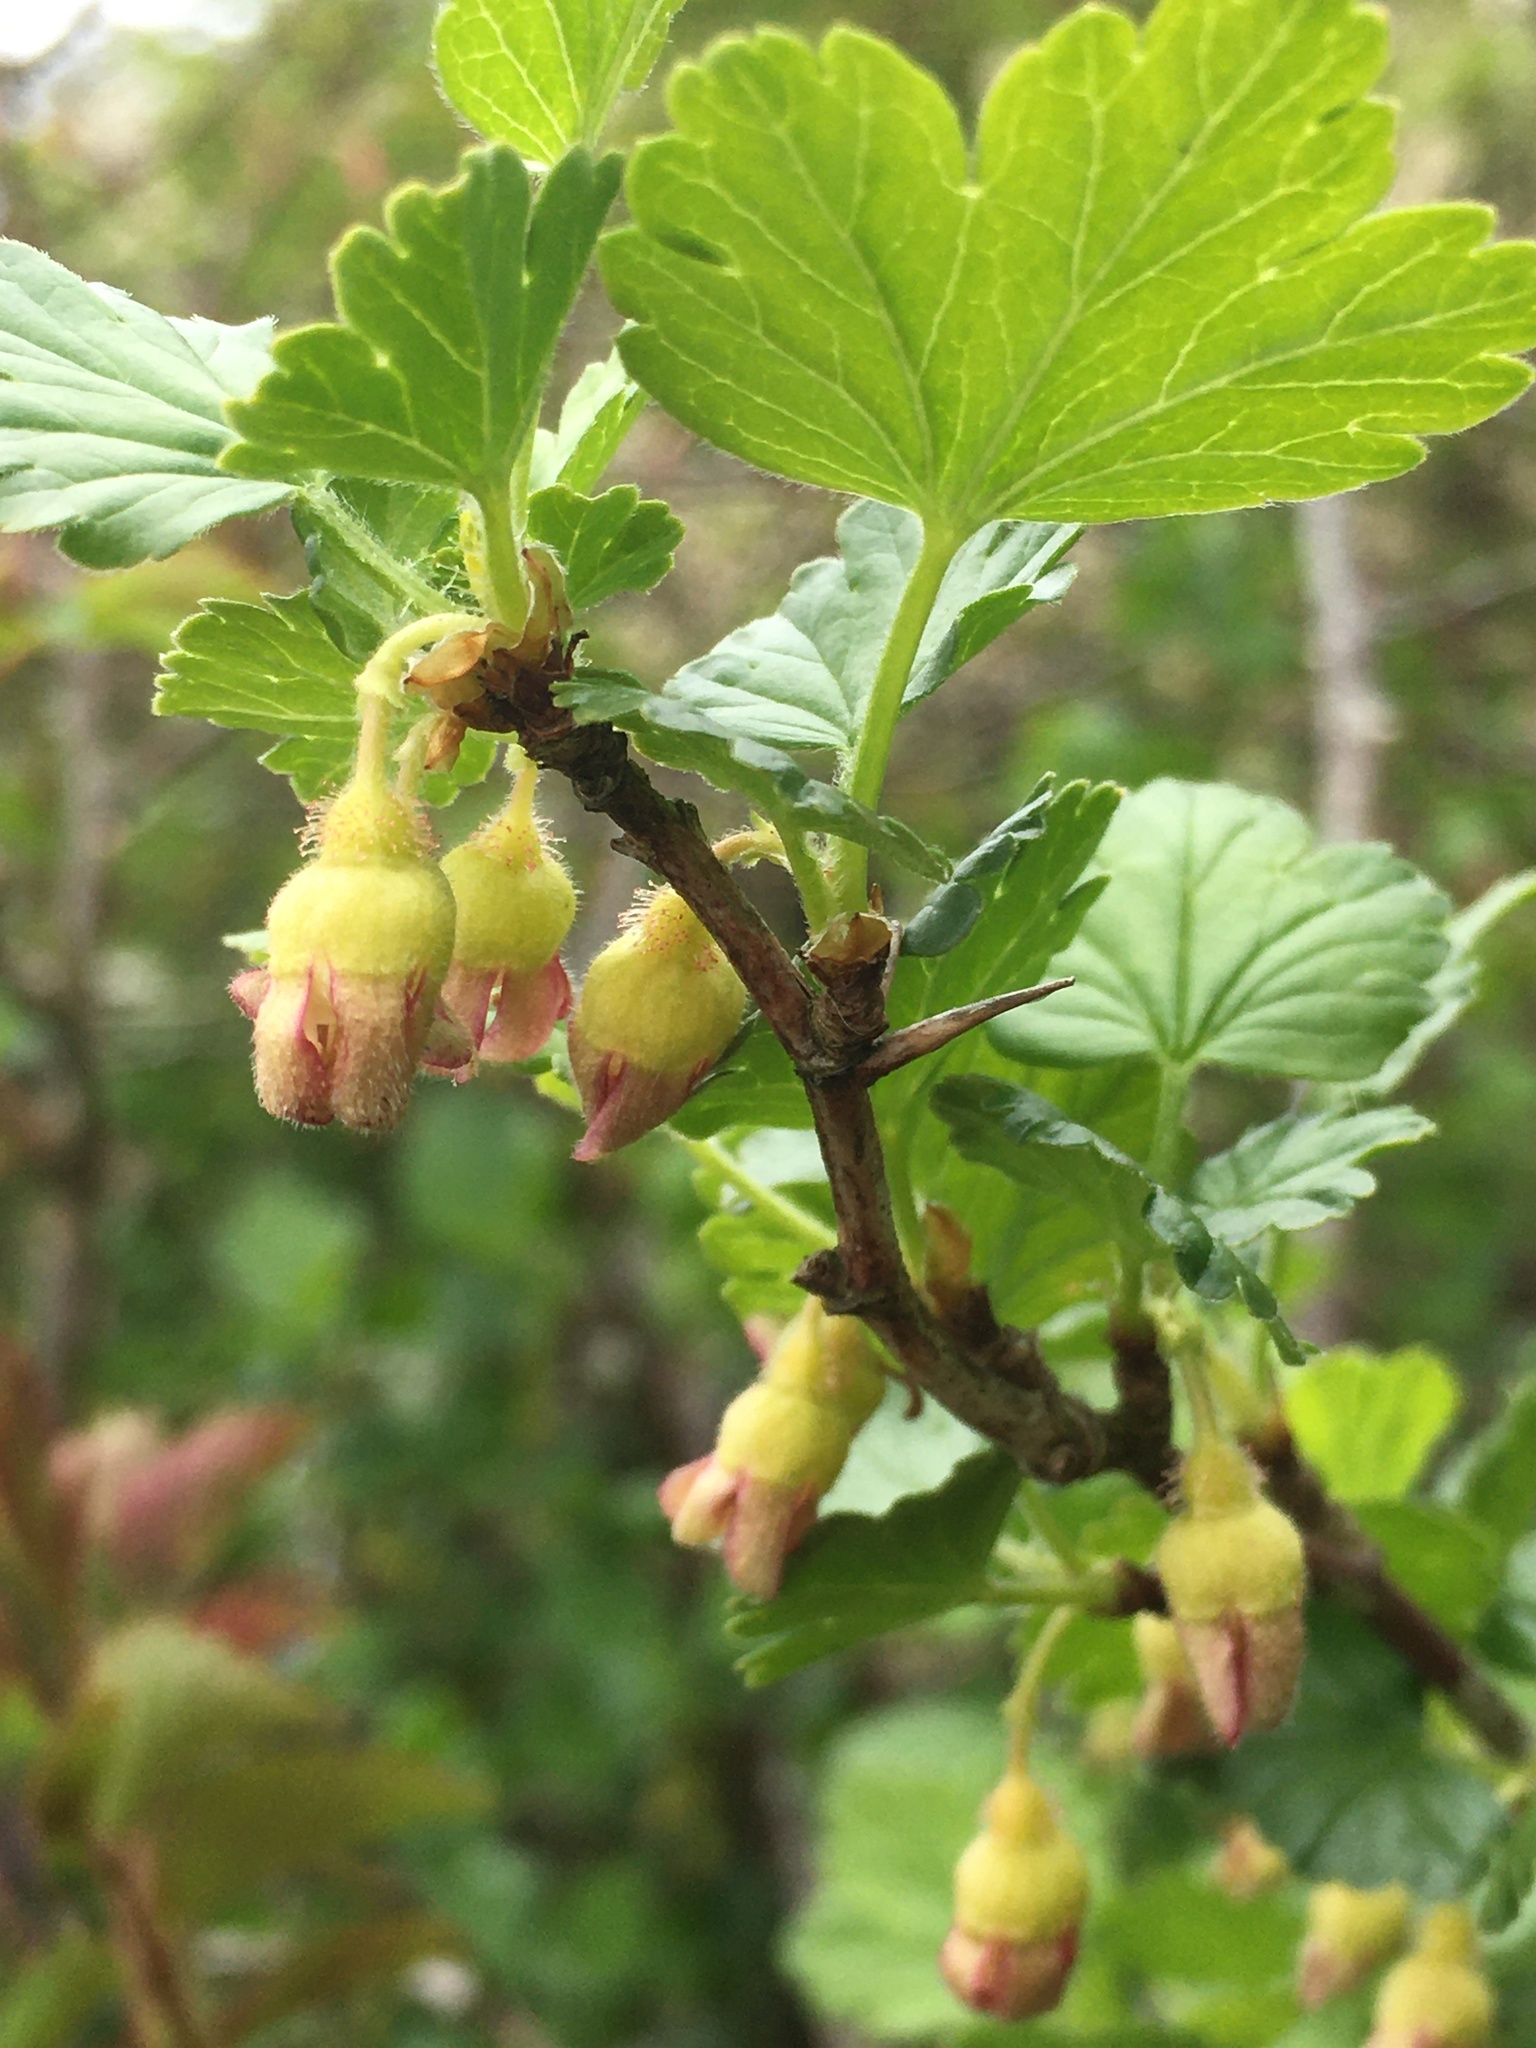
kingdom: Plantae
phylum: Tracheophyta
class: Magnoliopsida
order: Saxifragales
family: Grossulariaceae
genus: Ribes
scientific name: Ribes uva-crispa
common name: Gooseberry
